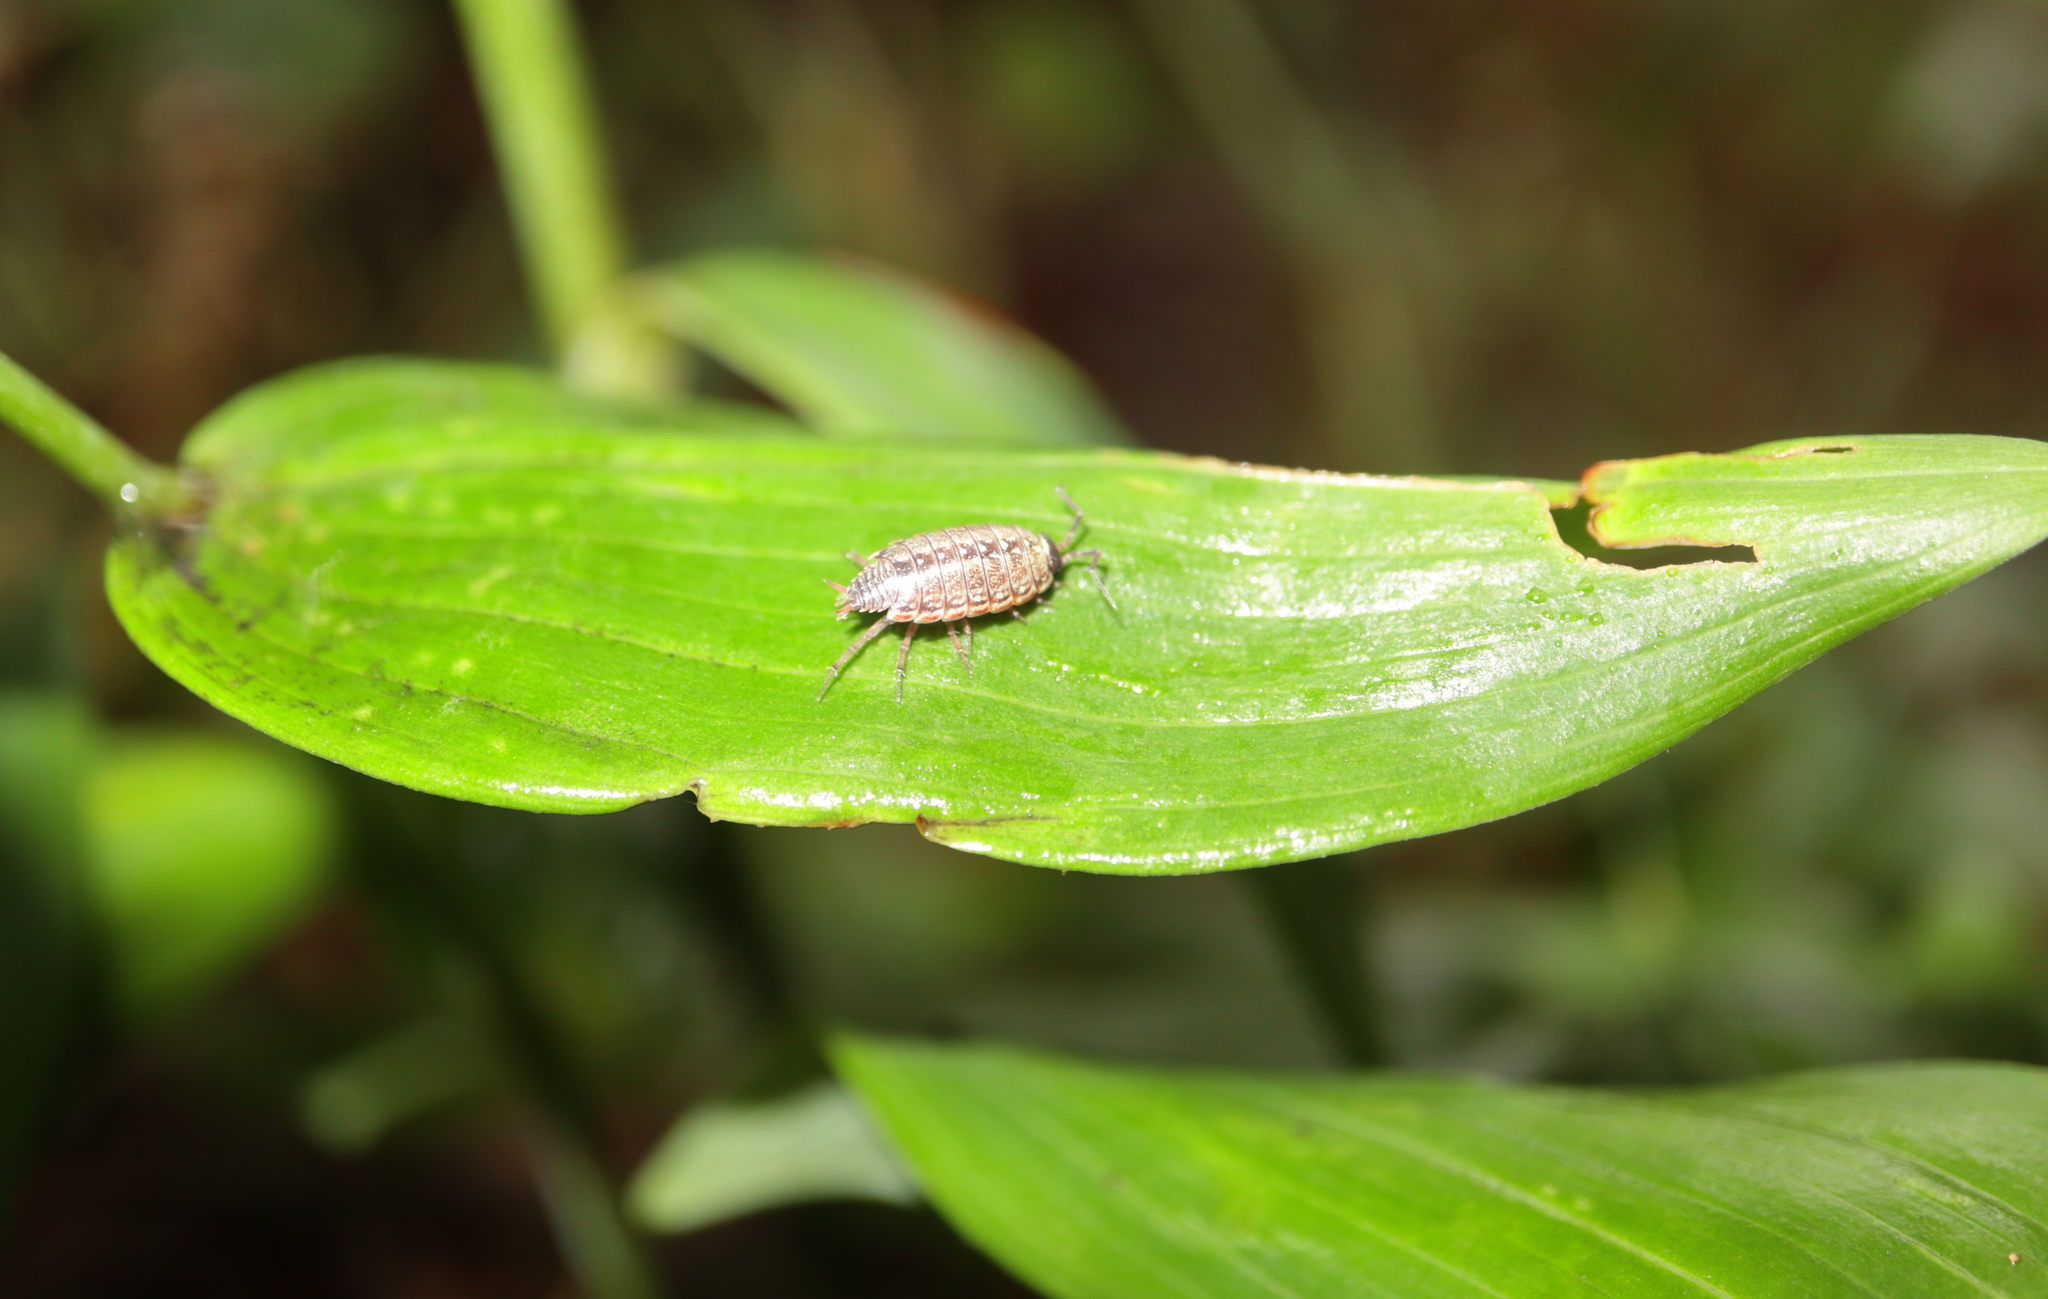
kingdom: Animalia
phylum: Arthropoda
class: Malacostraca
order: Isopoda
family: Philosciidae
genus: Philoscia
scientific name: Philoscia muscorum
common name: Common striped woodlouse
